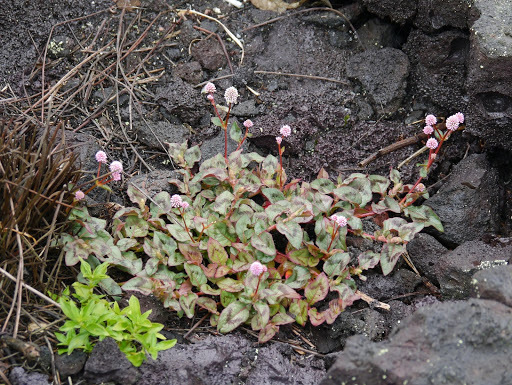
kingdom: Plantae
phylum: Tracheophyta
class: Magnoliopsida
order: Caryophyllales
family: Polygonaceae
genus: Persicaria
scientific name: Persicaria capitata
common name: Pinkhead smartweed
